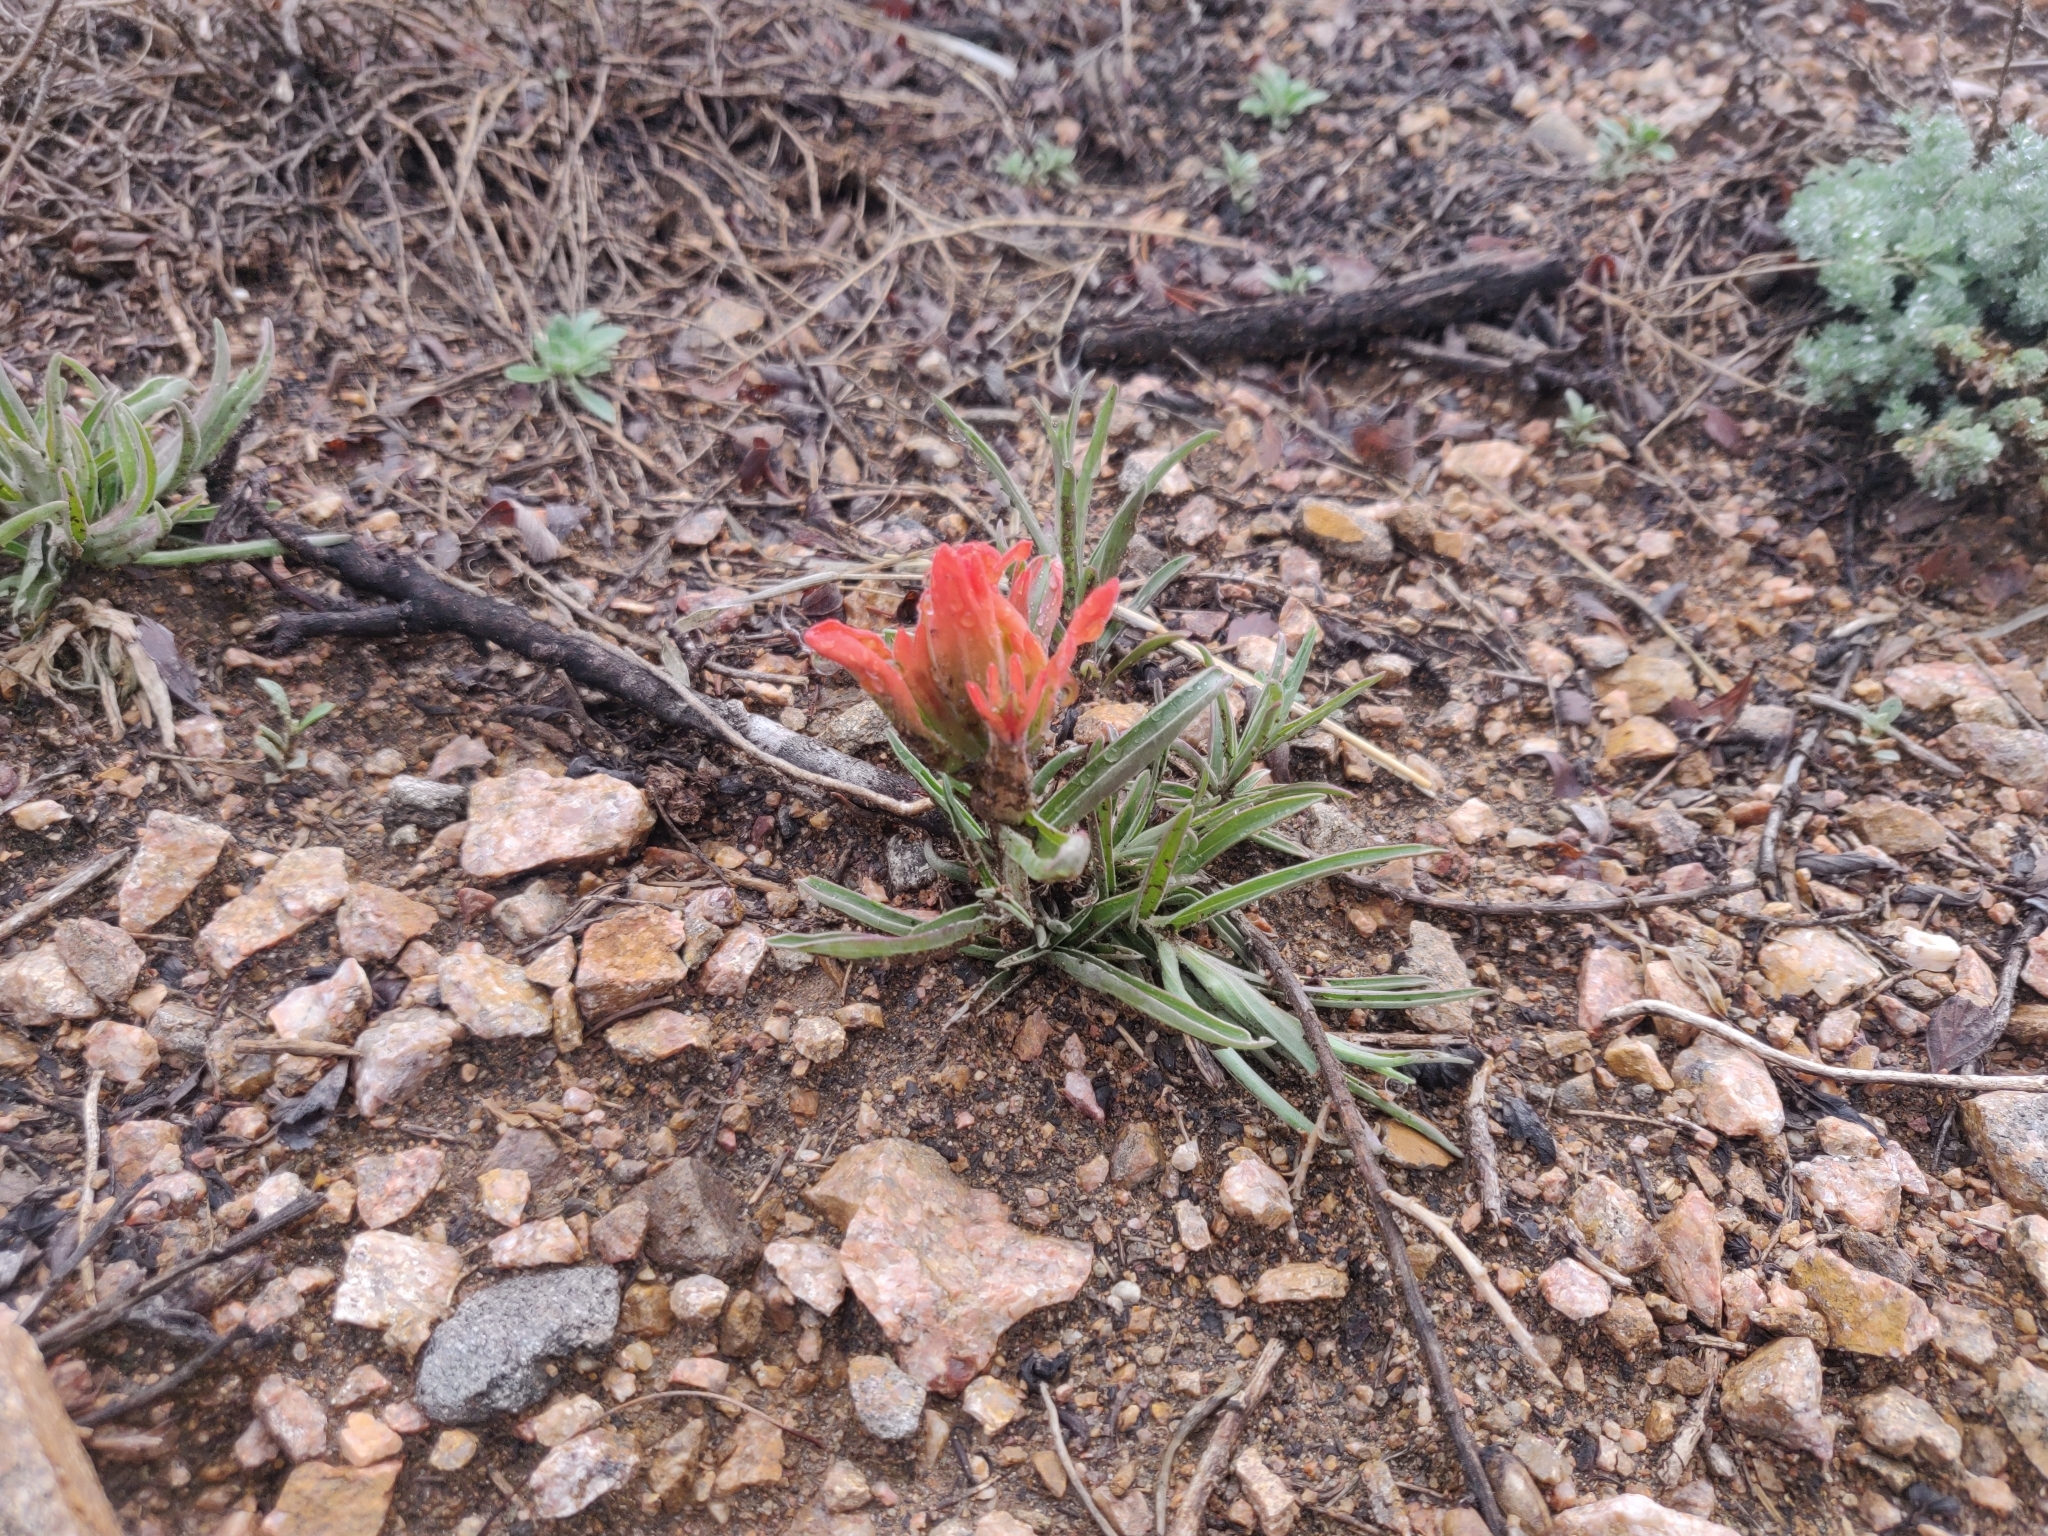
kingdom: Plantae
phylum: Tracheophyta
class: Magnoliopsida
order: Lamiales
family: Orobanchaceae
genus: Castilleja
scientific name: Castilleja integra
